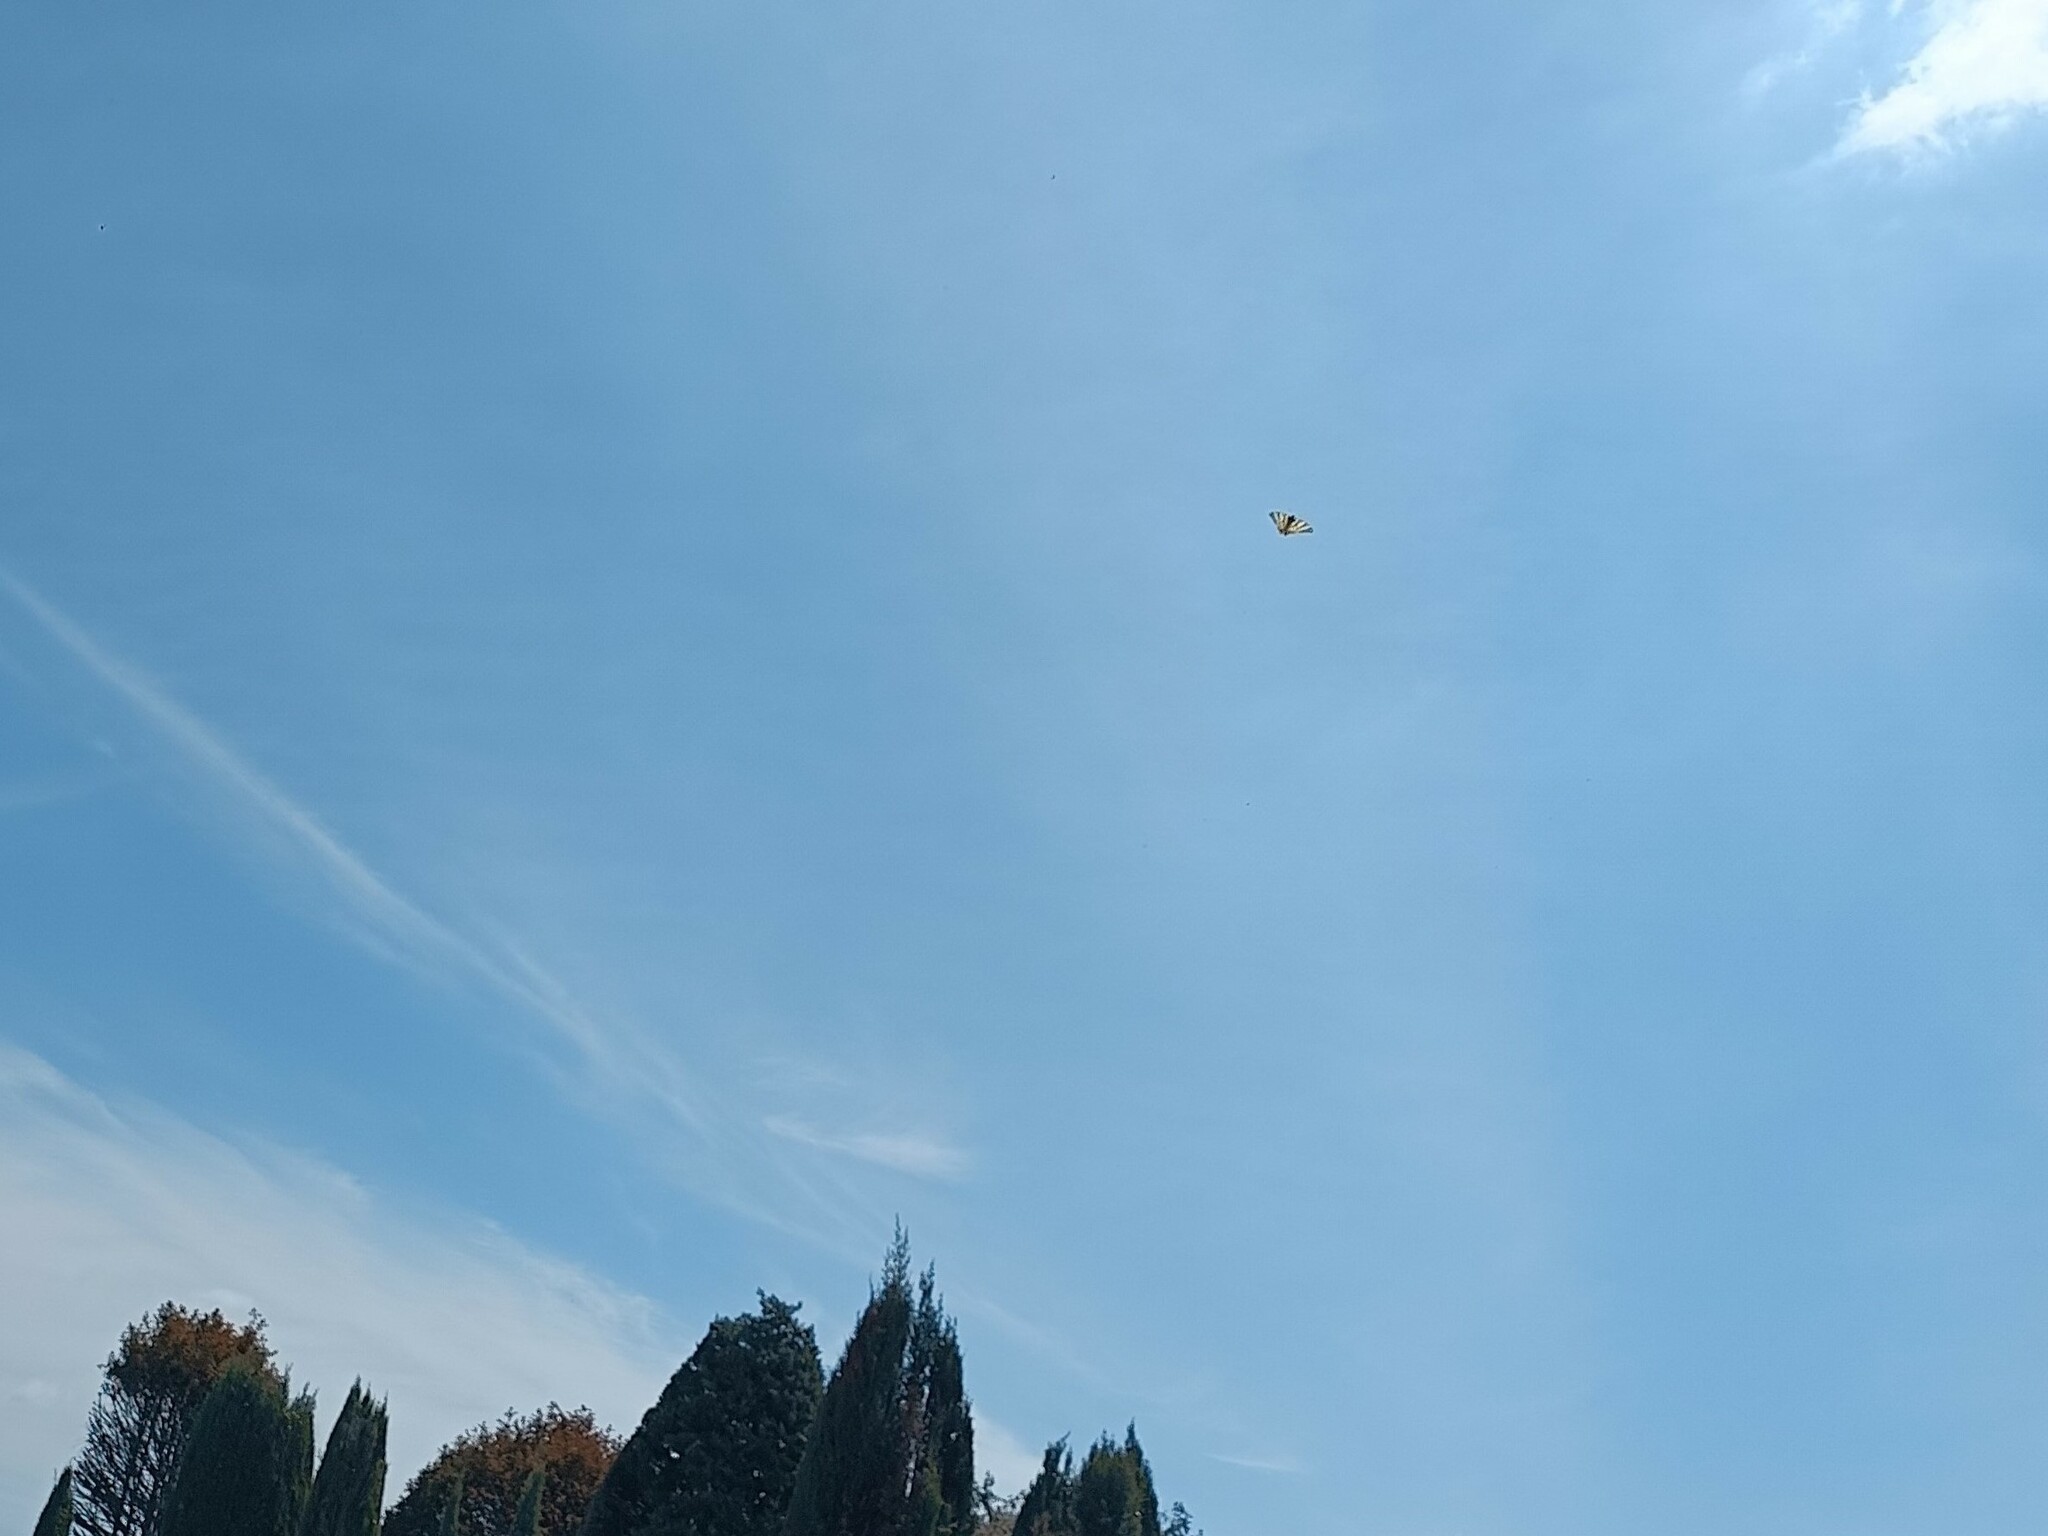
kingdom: Animalia
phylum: Arthropoda
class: Insecta
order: Lepidoptera
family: Papilionidae
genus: Iphiclides
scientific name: Iphiclides podalirius
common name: Scarce swallowtail
